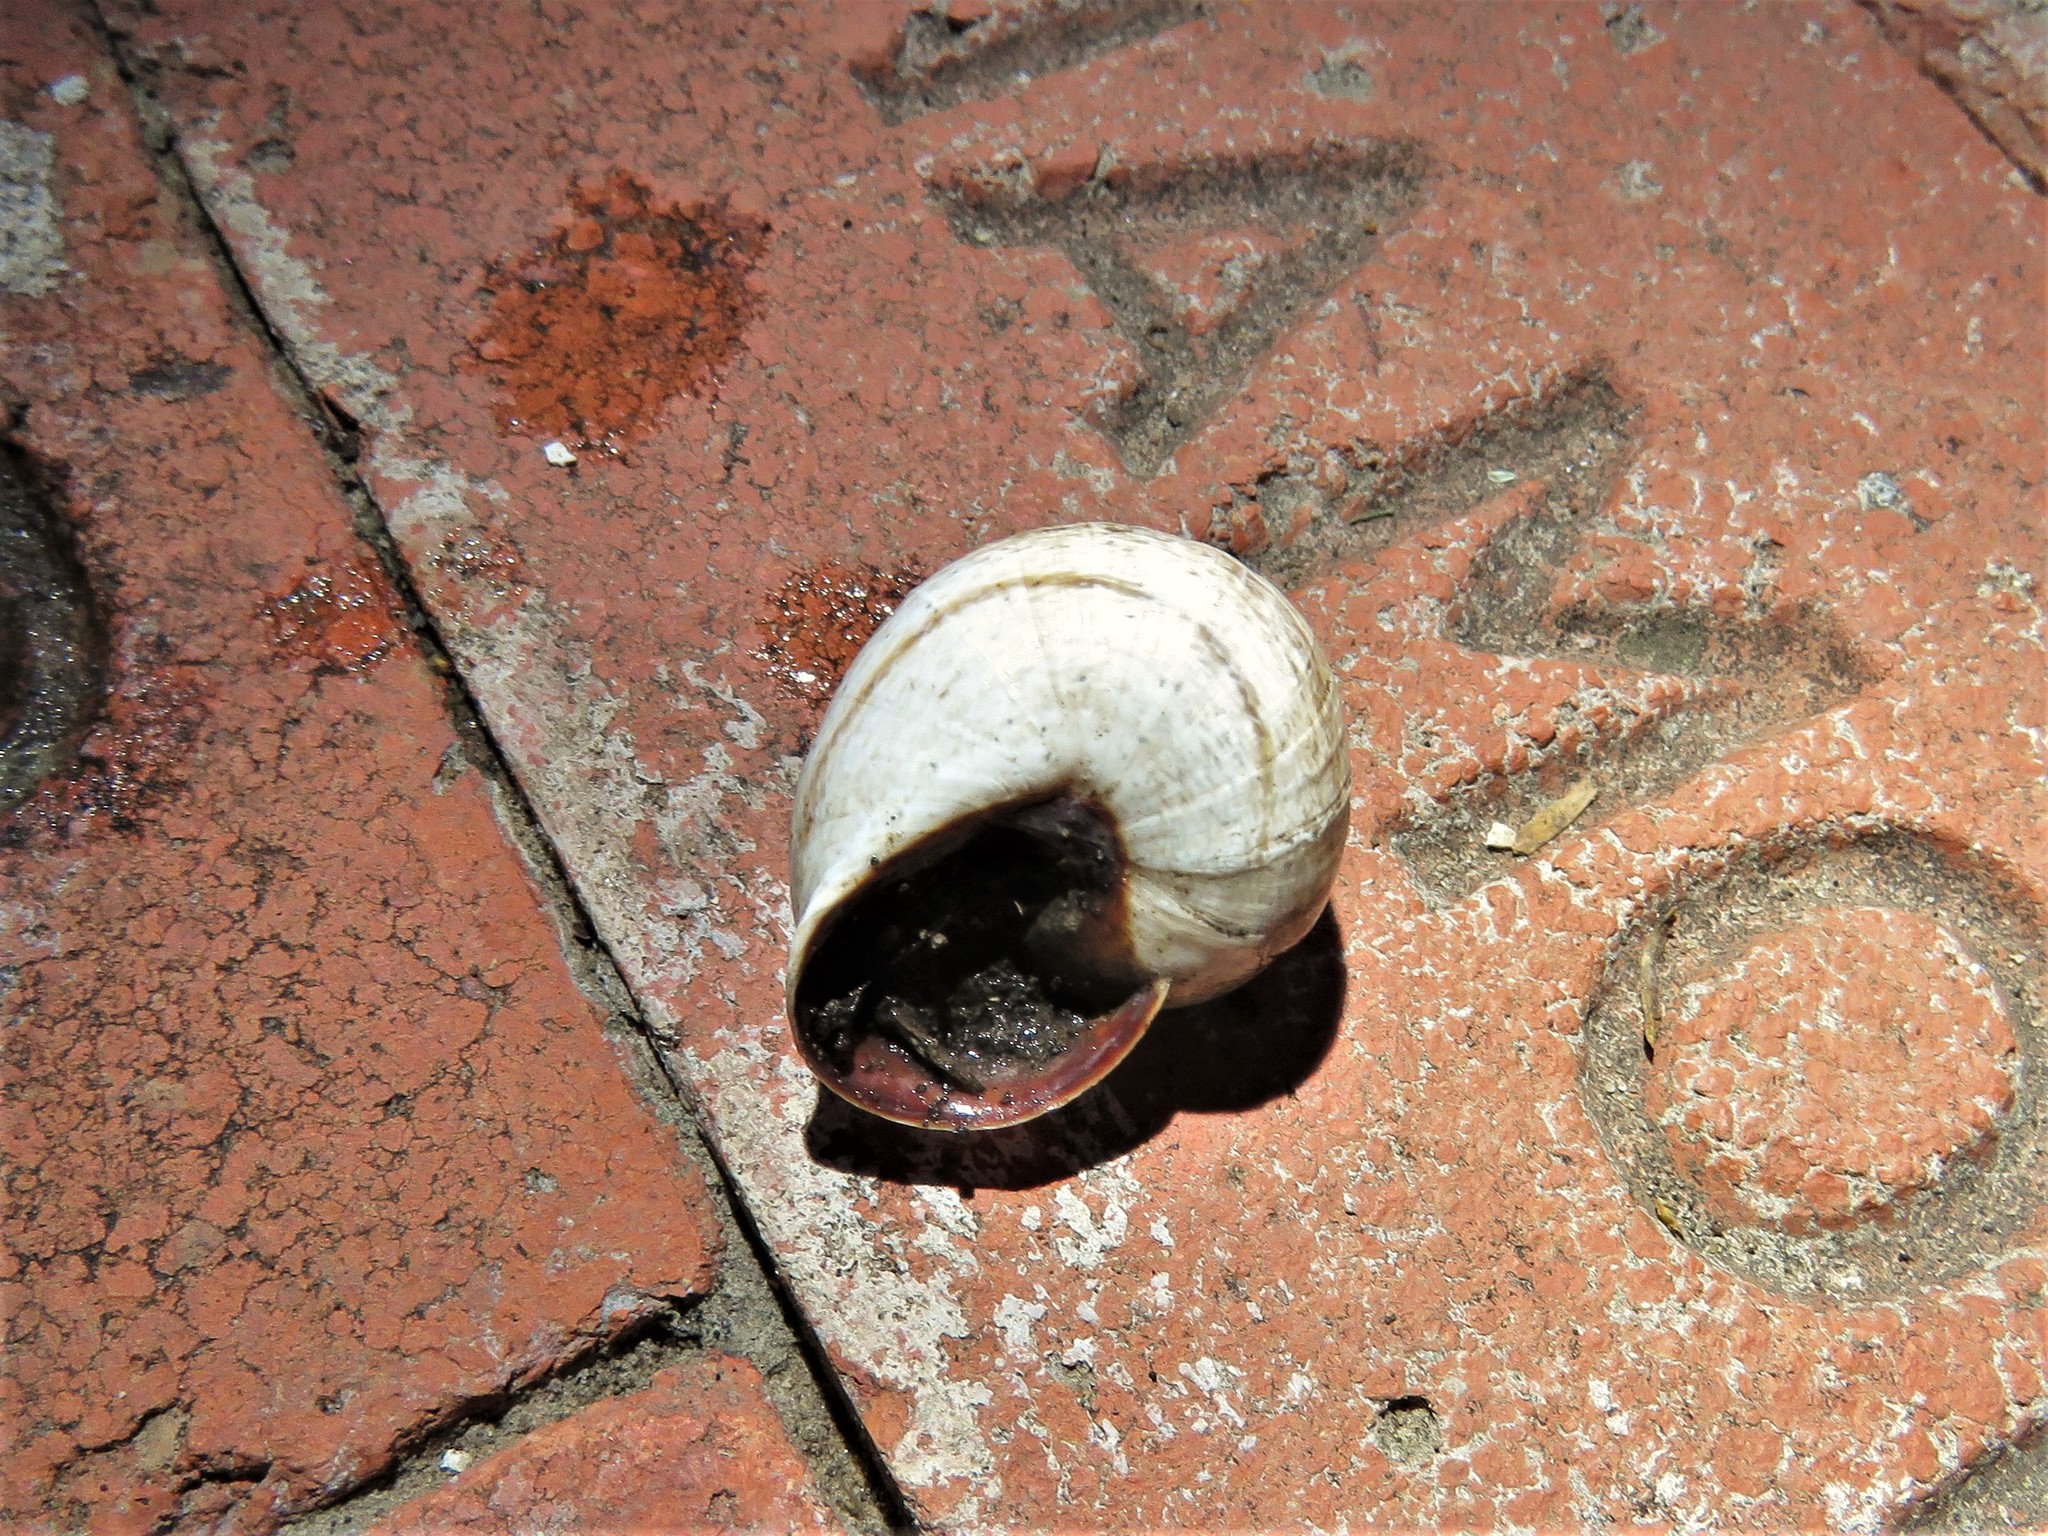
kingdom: Animalia
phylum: Mollusca
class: Gastropoda
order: Stylommatophora
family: Helicidae
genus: Otala
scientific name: Otala lactea
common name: Milk snail
